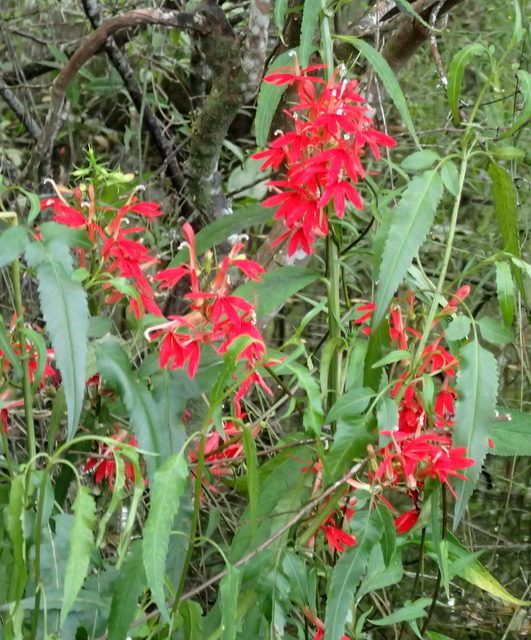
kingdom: Plantae
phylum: Tracheophyta
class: Magnoliopsida
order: Asterales
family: Campanulaceae
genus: Lobelia
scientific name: Lobelia cardinalis
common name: Cardinal flower
